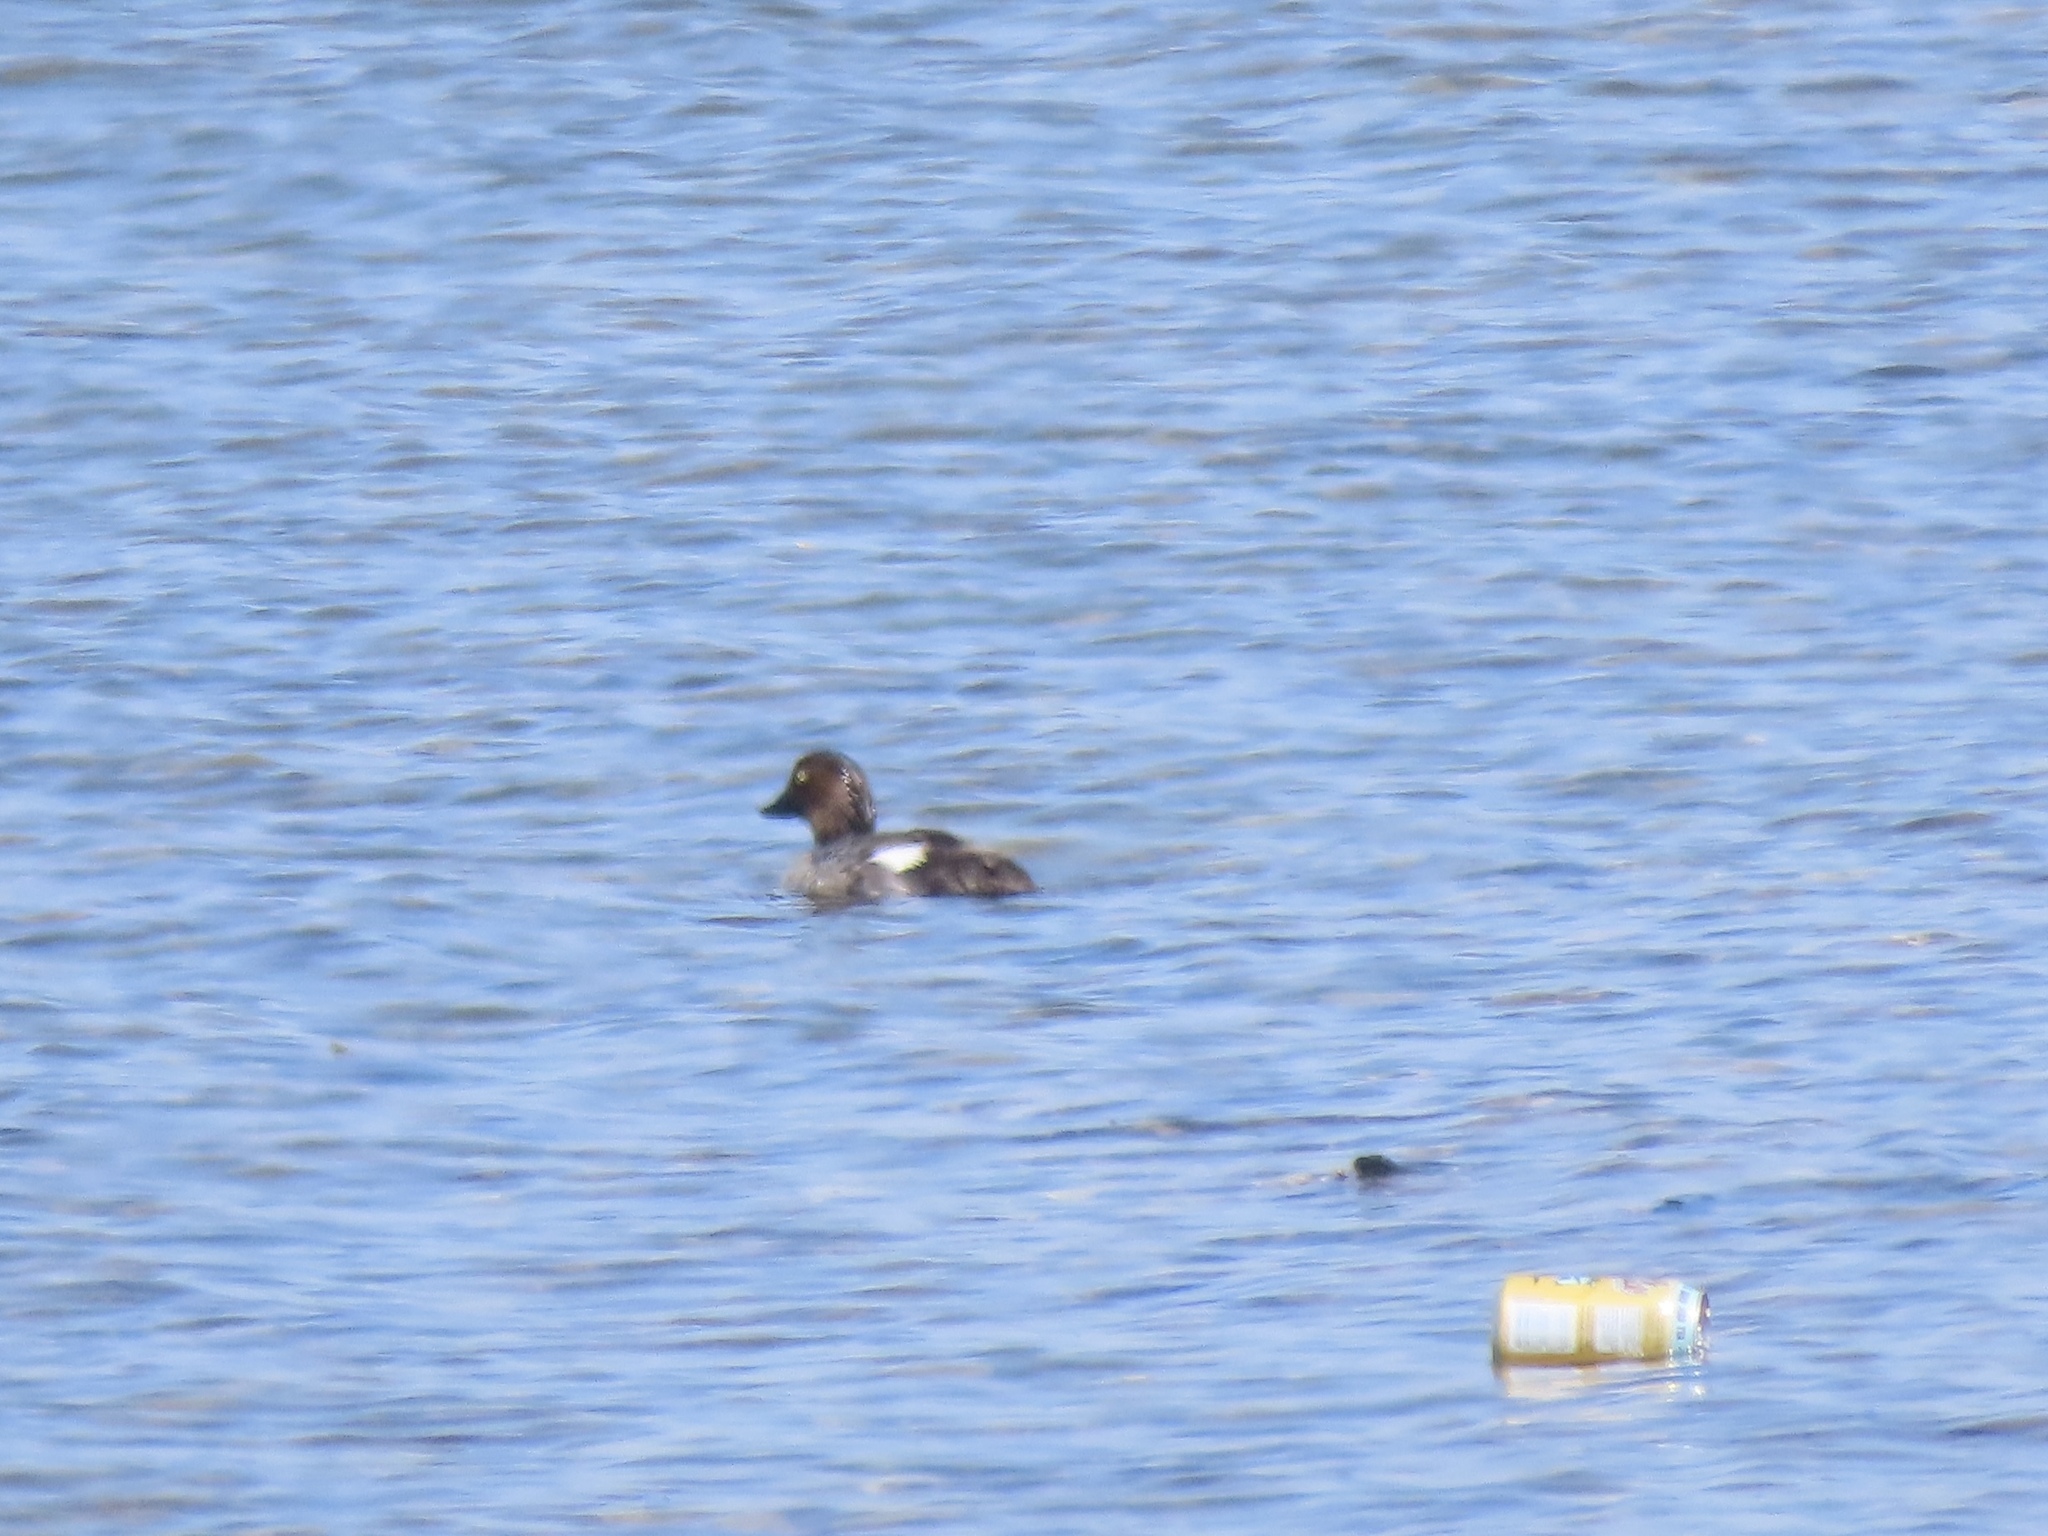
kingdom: Animalia
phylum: Chordata
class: Aves
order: Anseriformes
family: Anatidae
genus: Bucephala
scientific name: Bucephala clangula
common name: Common goldeneye
